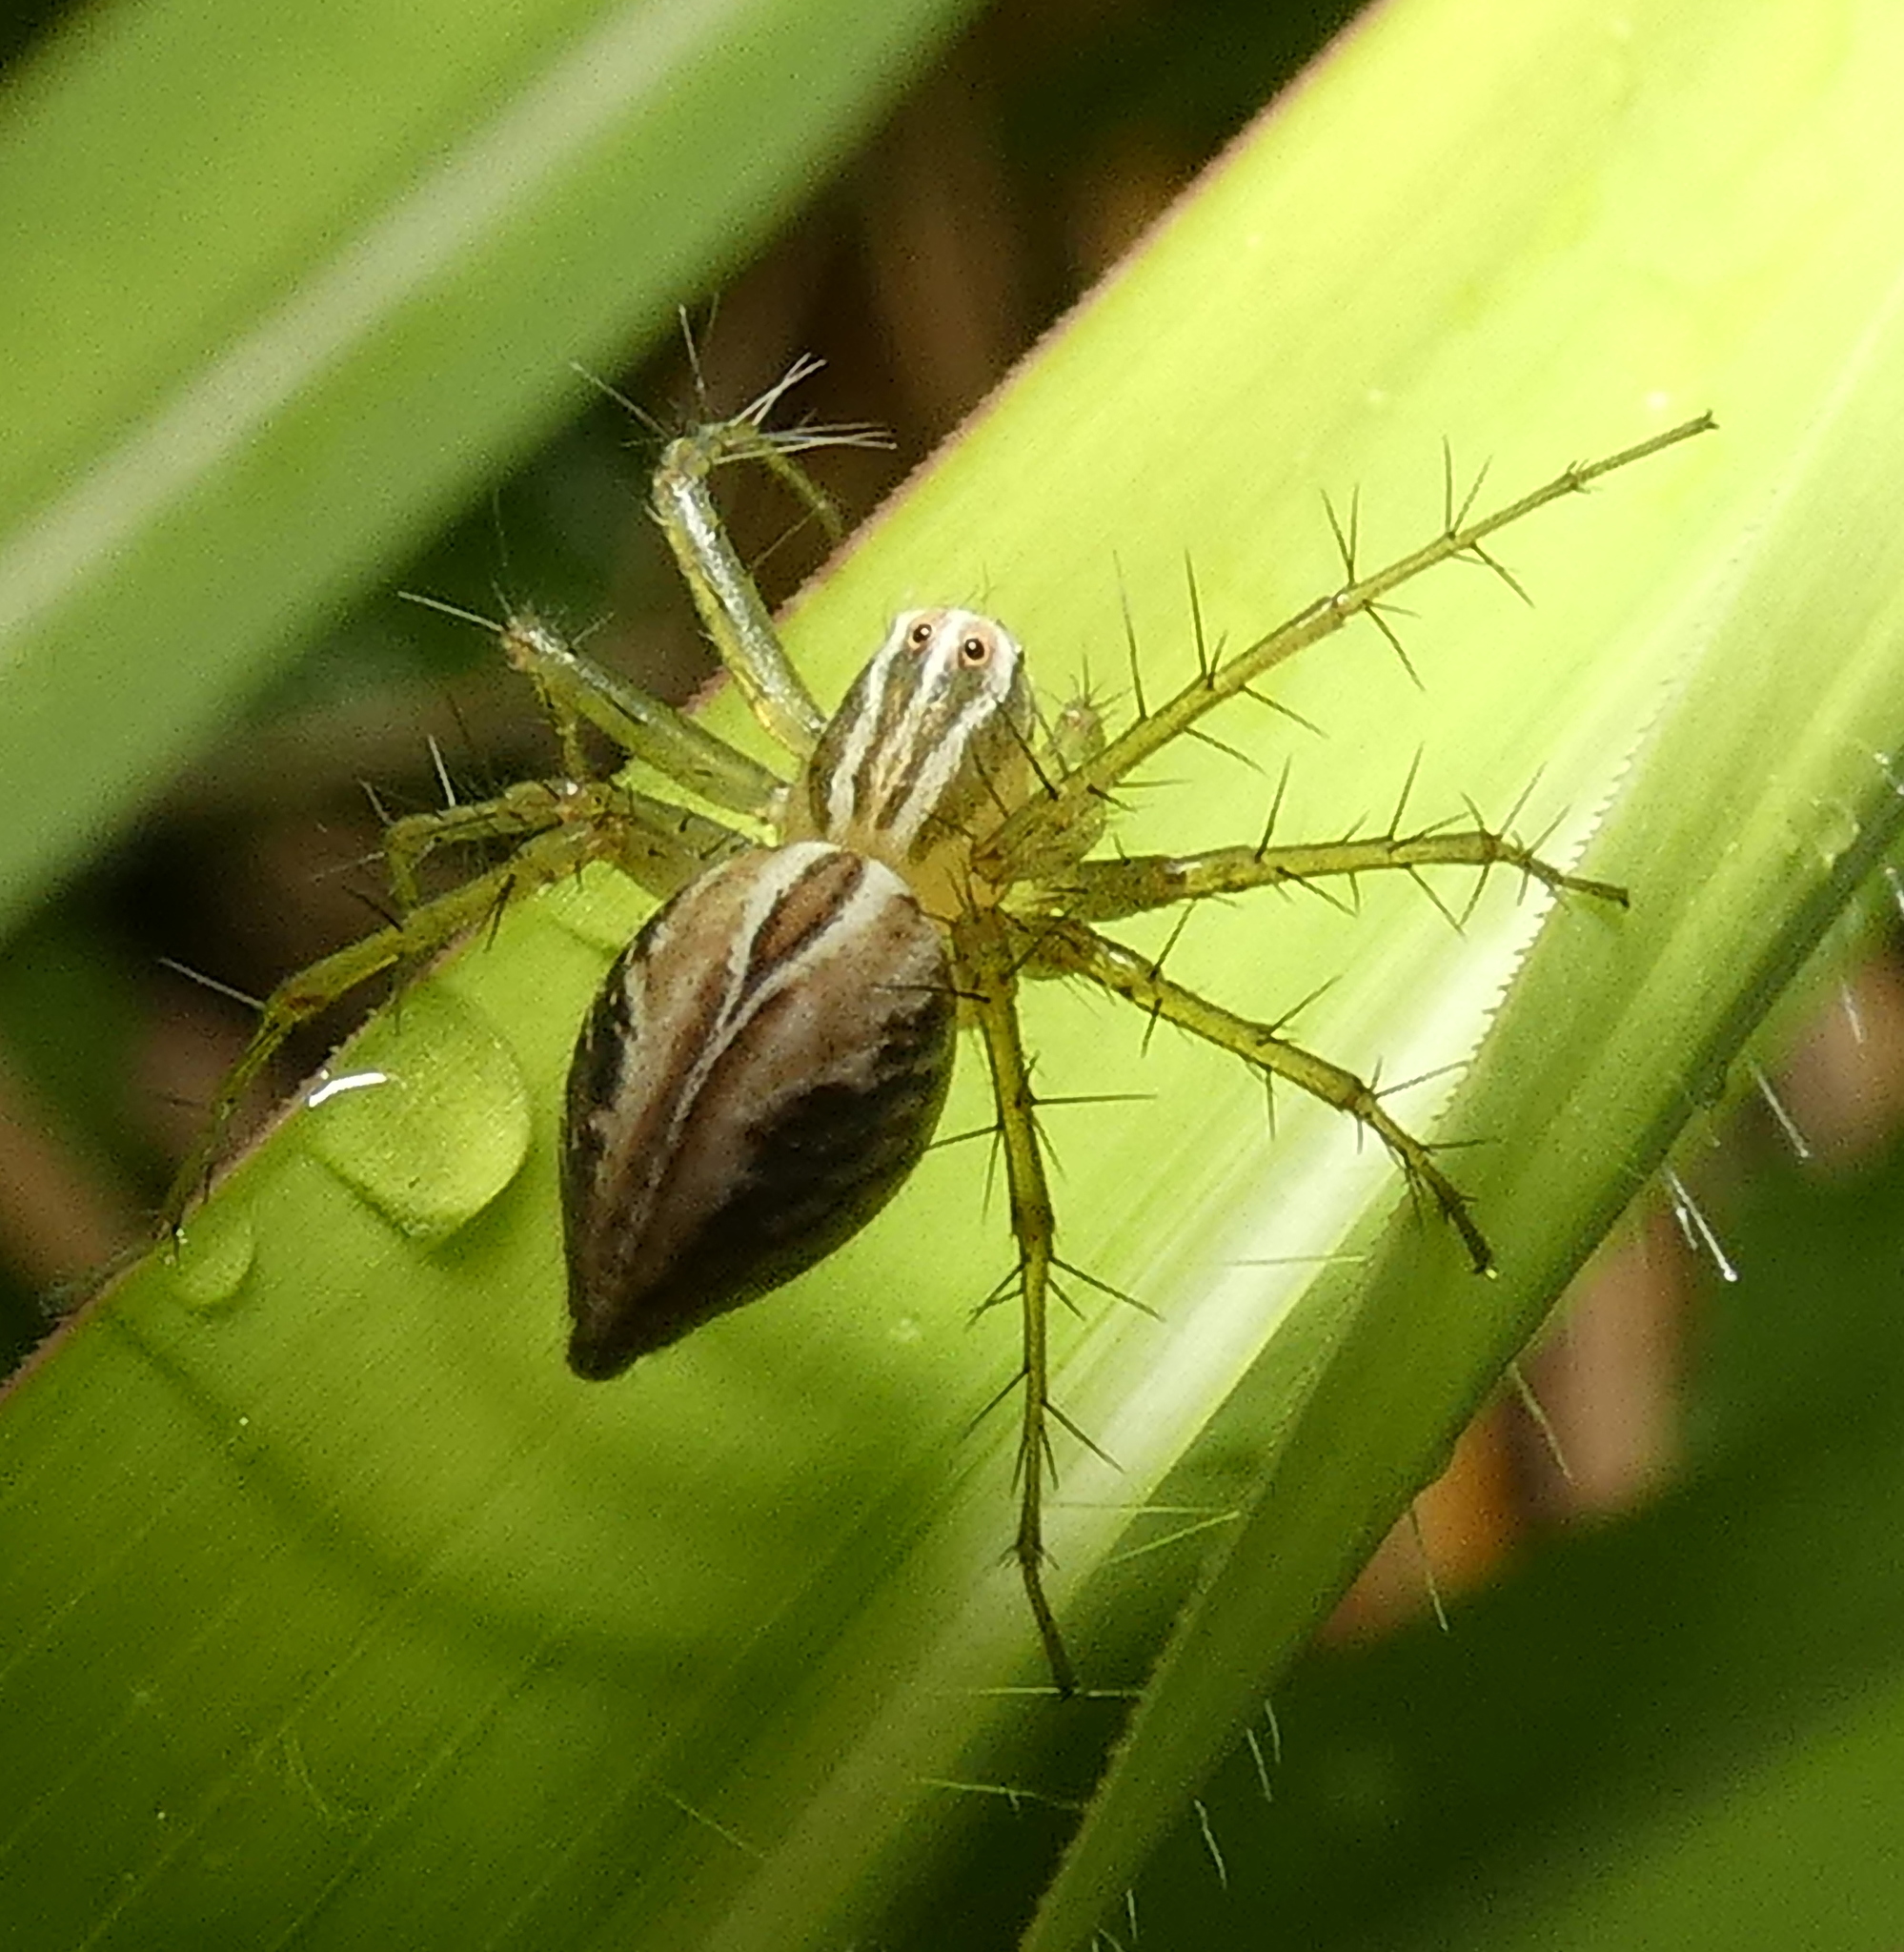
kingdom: Animalia
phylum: Arthropoda
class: Arachnida
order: Araneae
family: Oxyopidae
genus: Oxyopes
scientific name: Oxyopes salticus
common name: Lynx spiders
